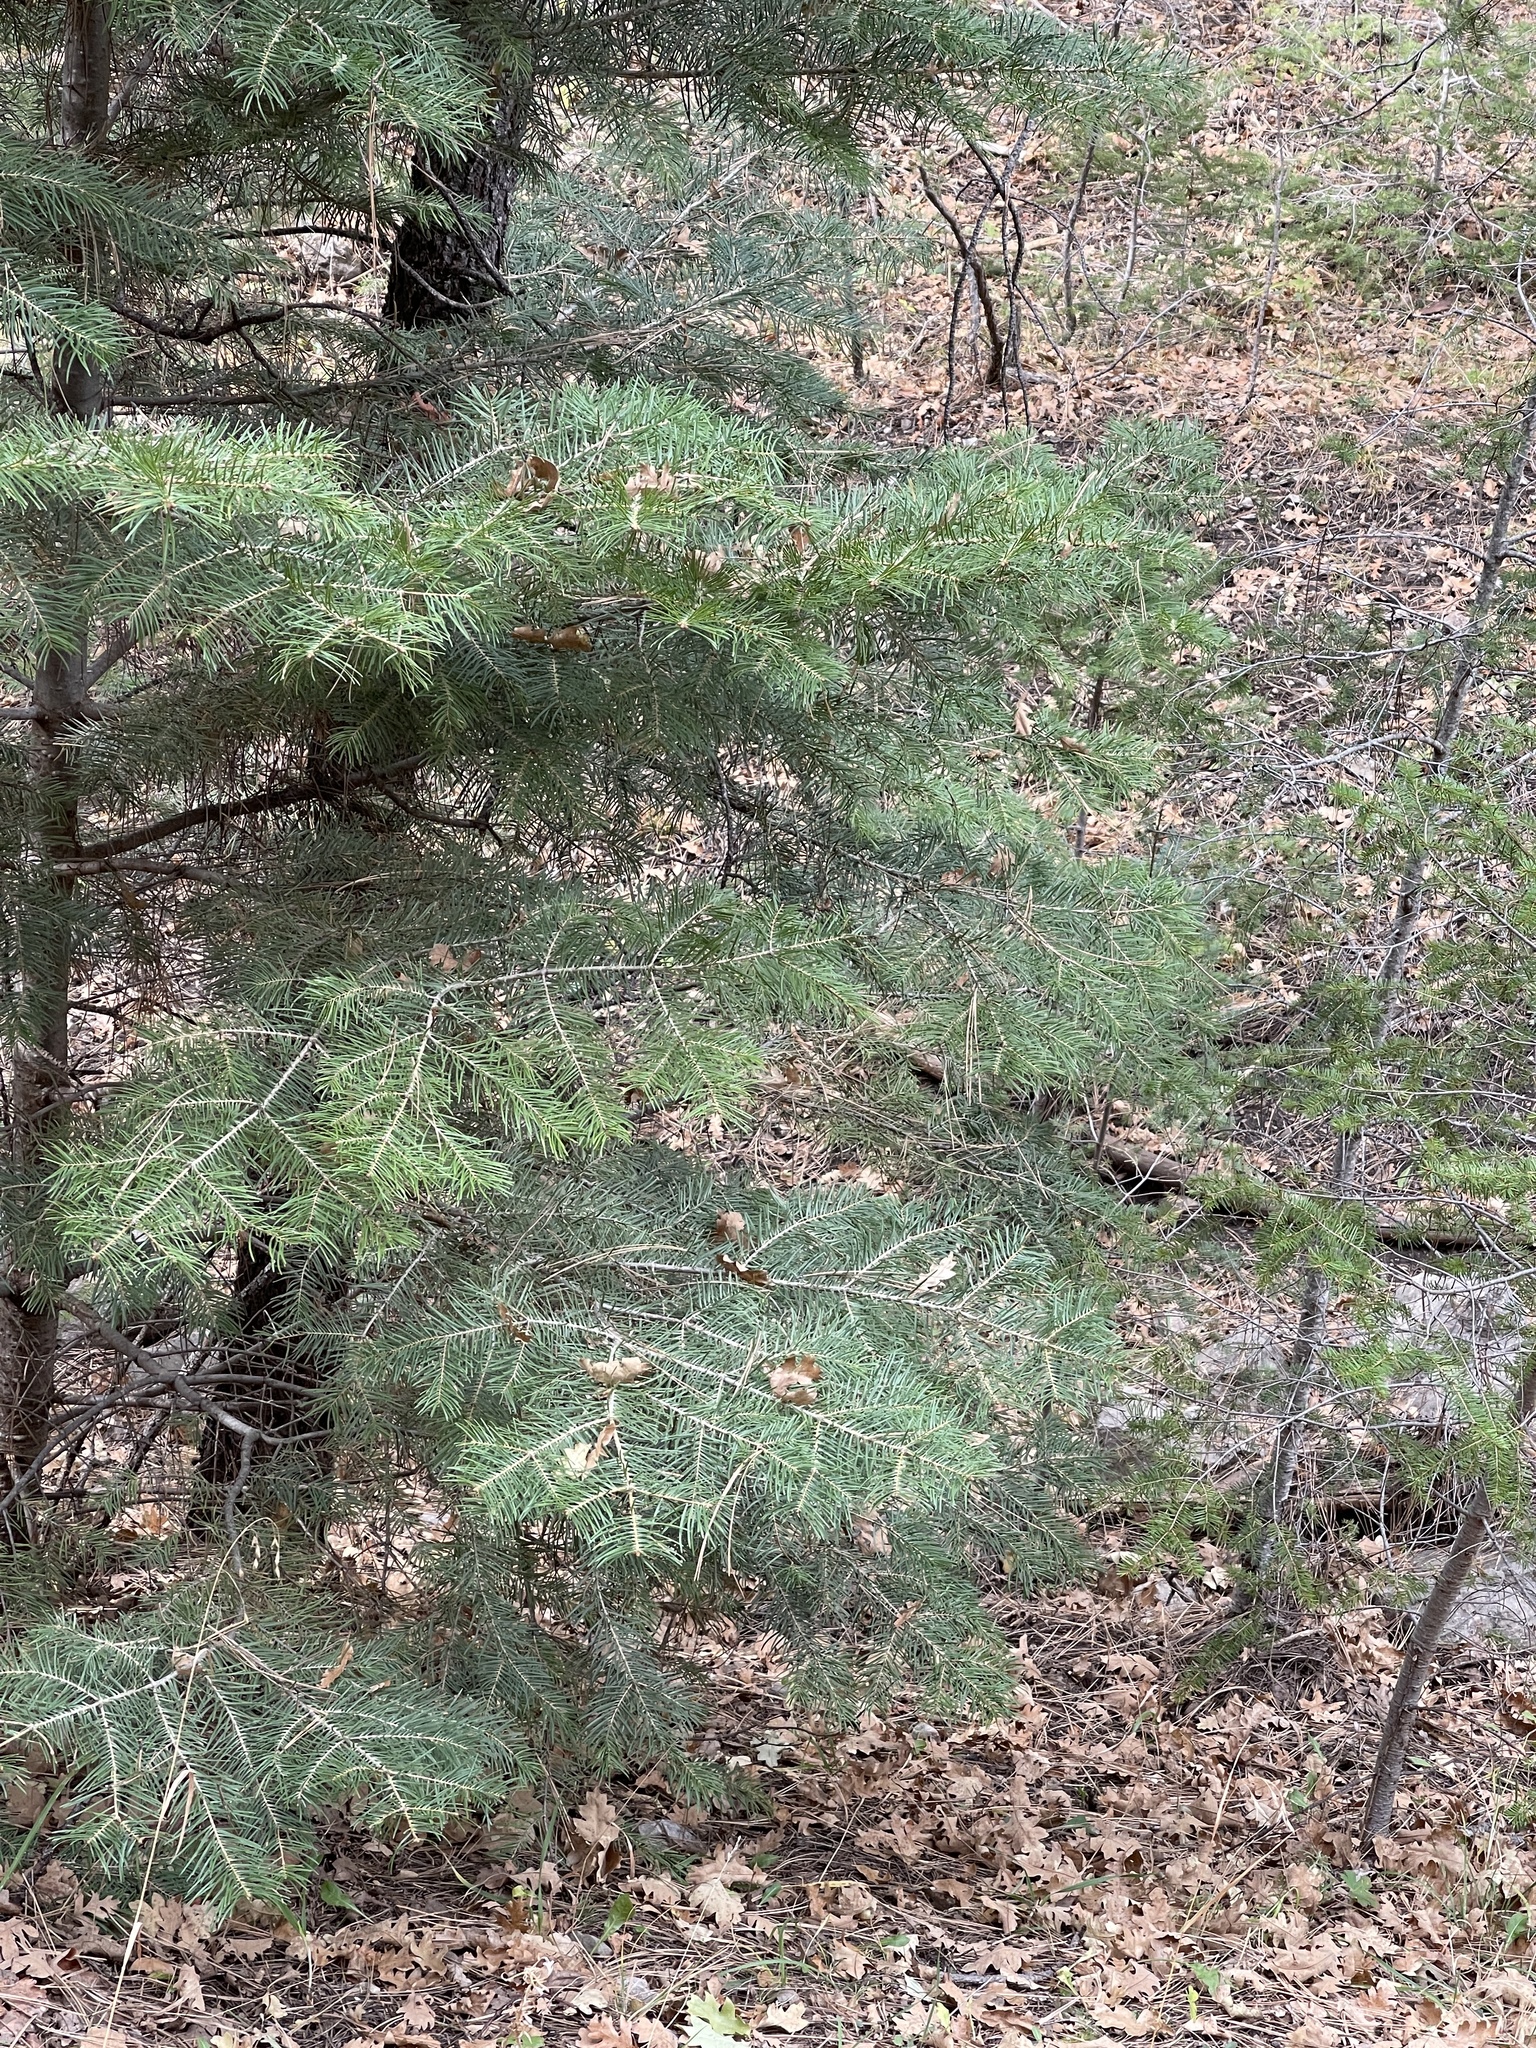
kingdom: Plantae
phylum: Tracheophyta
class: Pinopsida
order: Pinales
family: Pinaceae
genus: Abies
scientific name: Abies concolor
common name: Colorado fir
